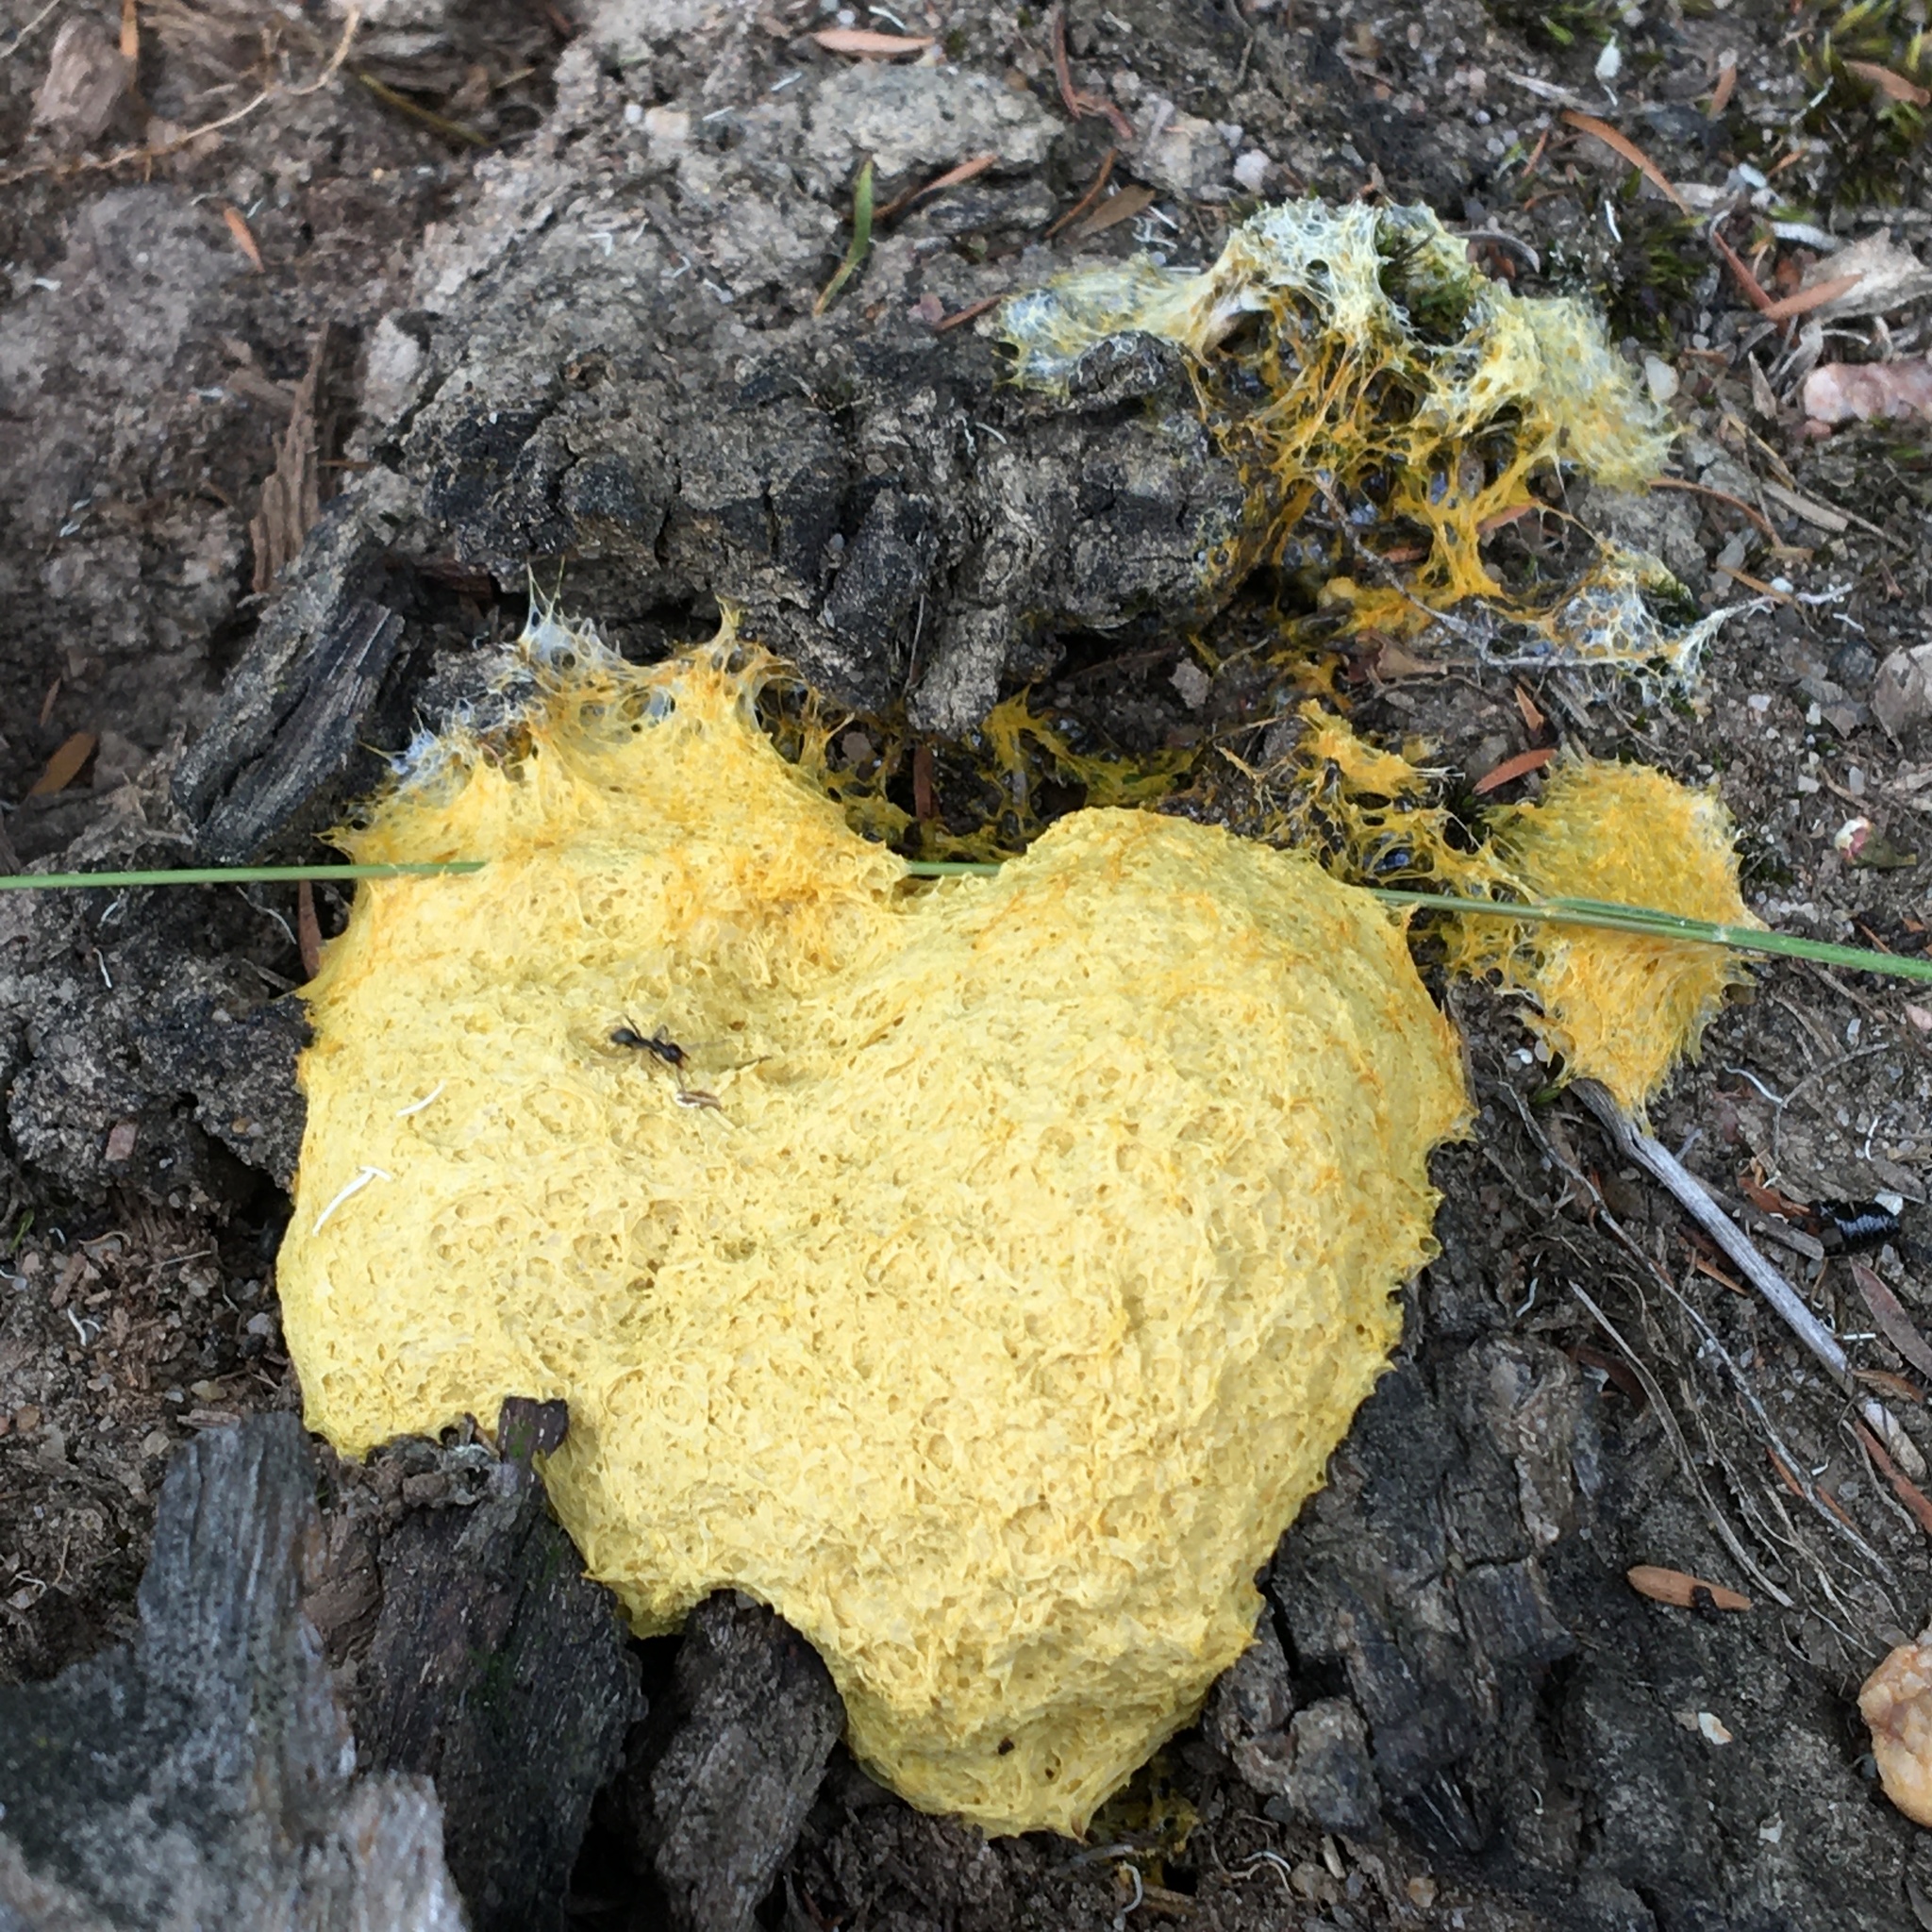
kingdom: Protozoa
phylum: Mycetozoa
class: Myxomycetes
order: Physarales
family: Physaraceae
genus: Fuligo
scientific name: Fuligo septica
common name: Dog vomit slime mold
